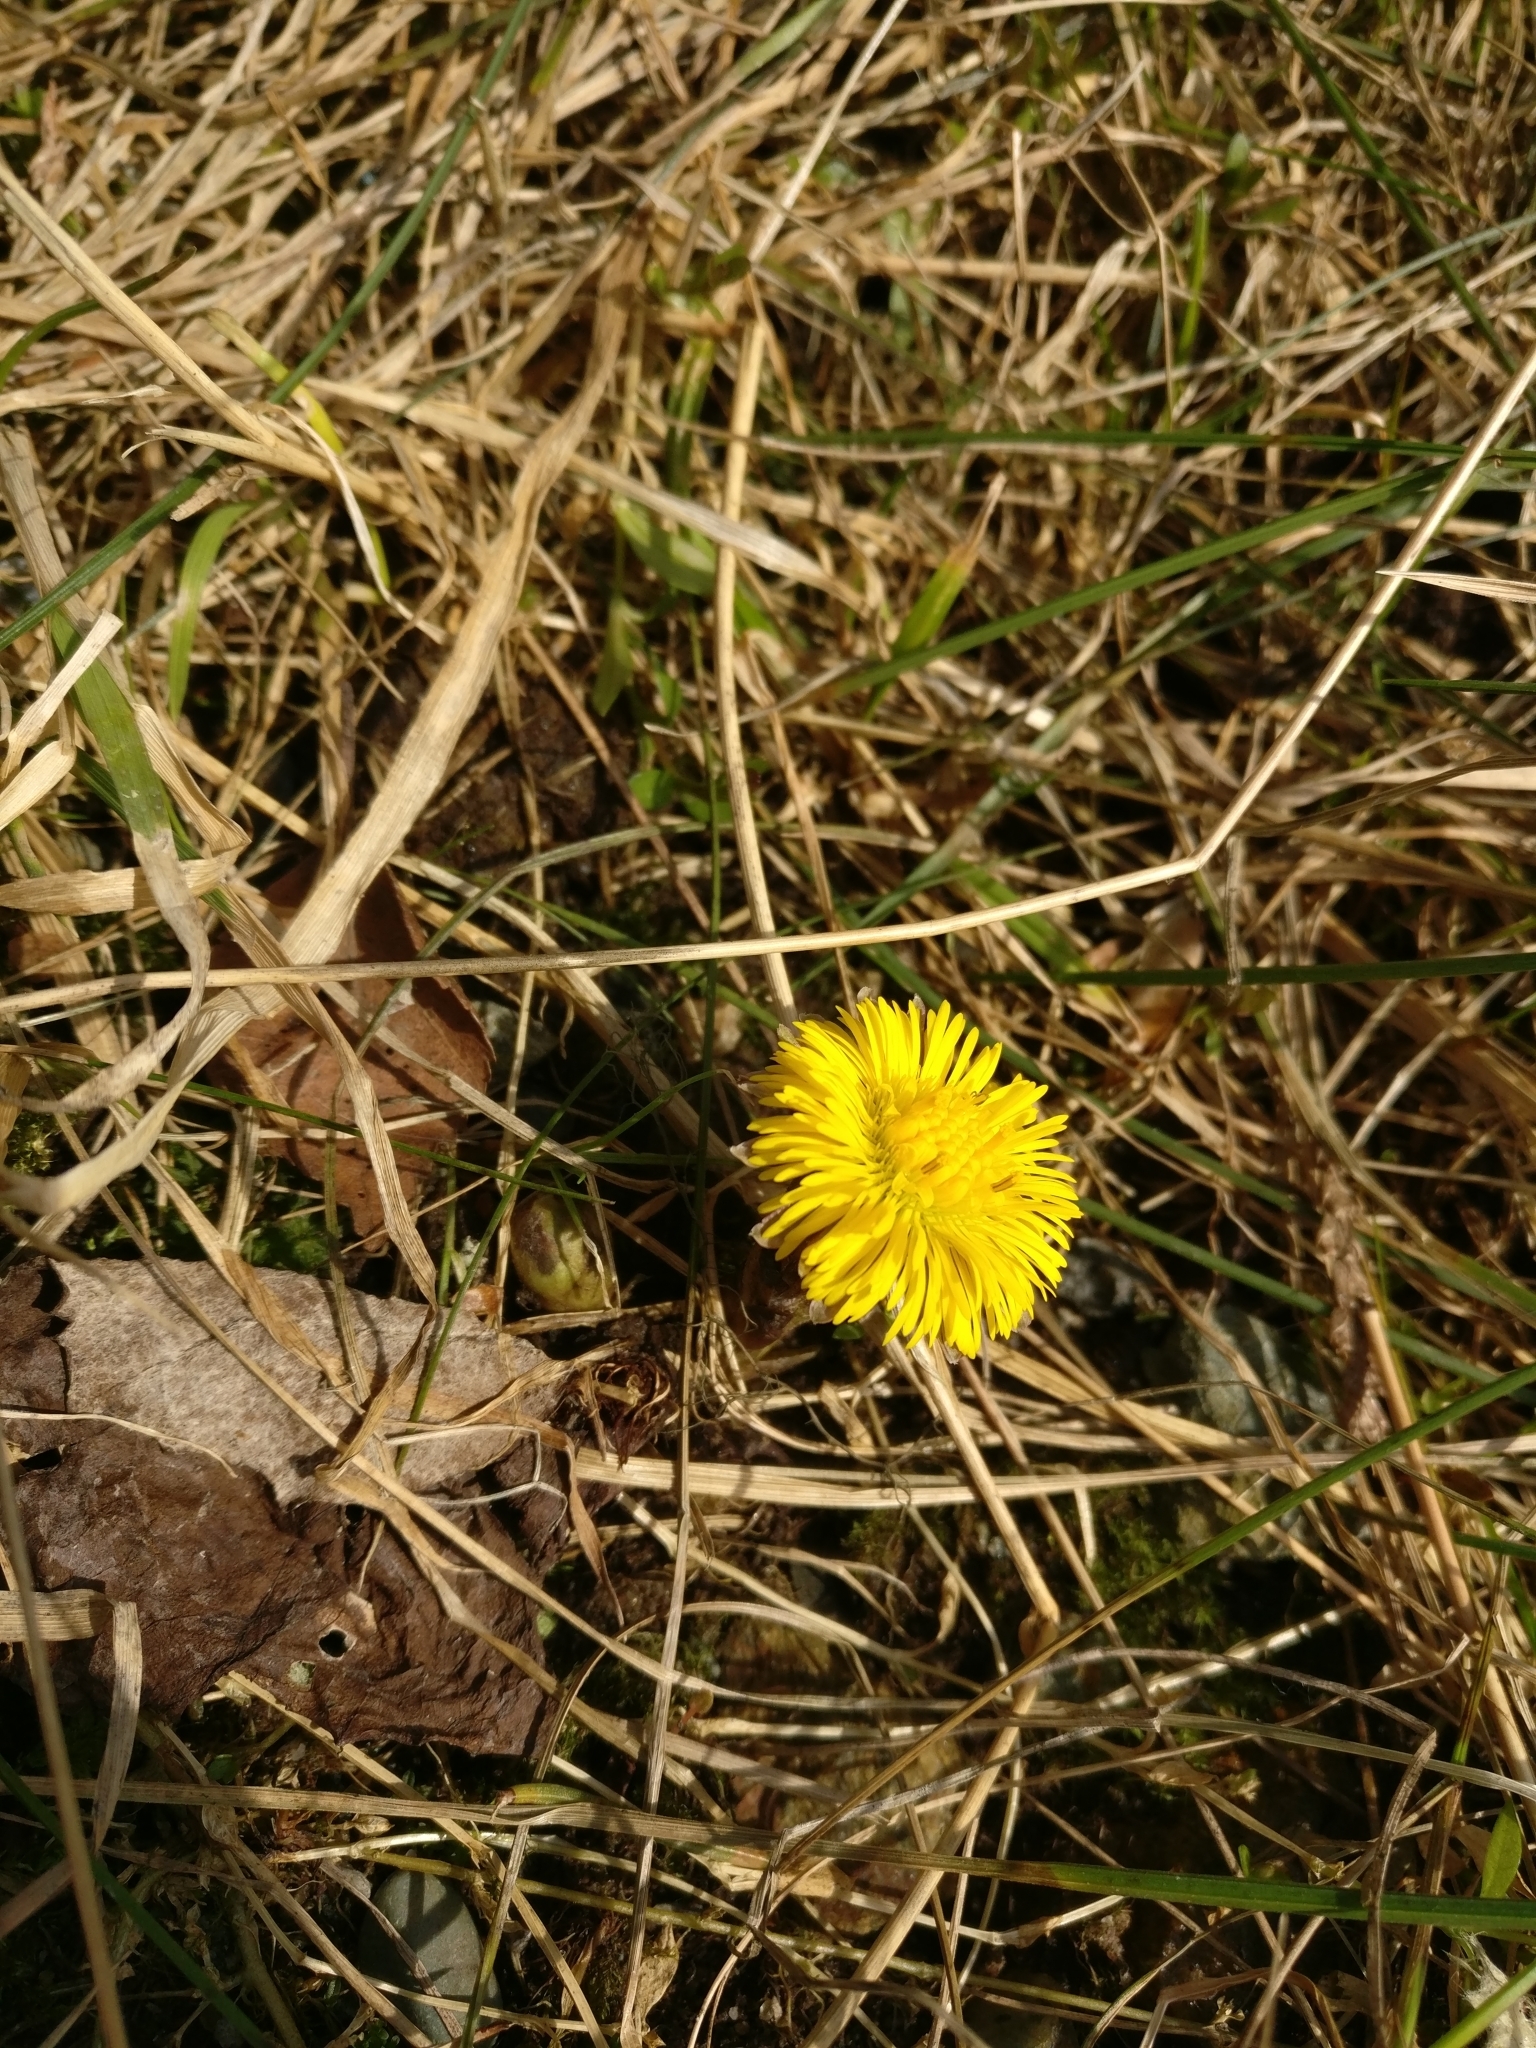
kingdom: Plantae
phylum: Tracheophyta
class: Magnoliopsida
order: Asterales
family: Asteraceae
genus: Tussilago
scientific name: Tussilago farfara
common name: Coltsfoot
